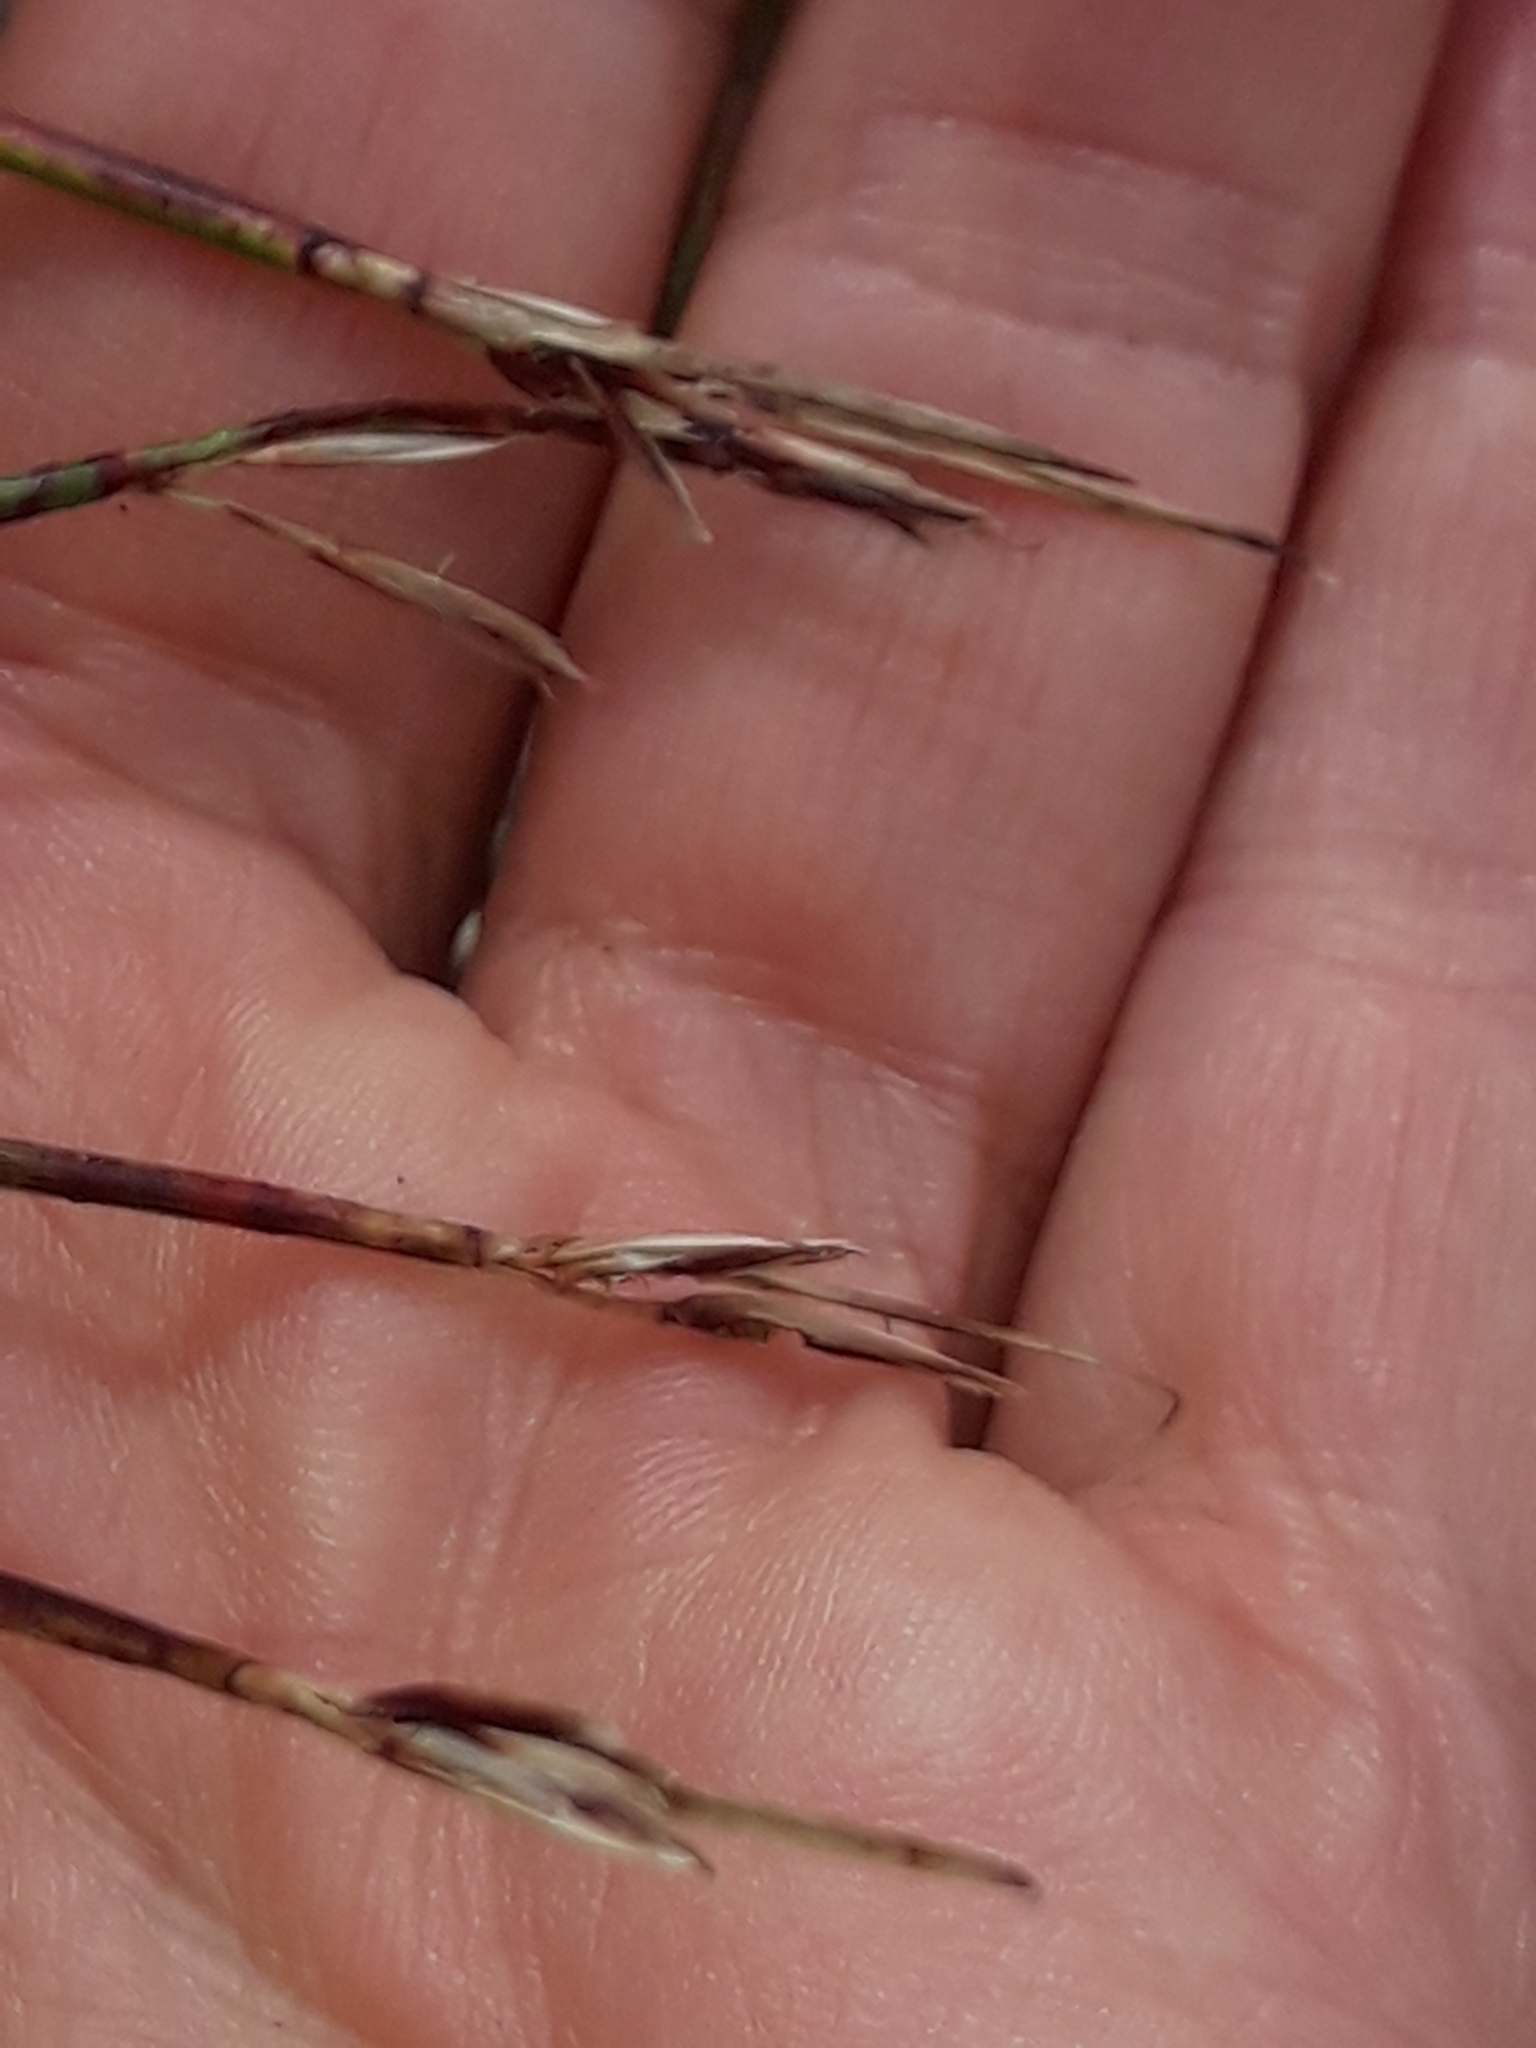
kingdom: Plantae
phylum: Tracheophyta
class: Liliopsida
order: Poales
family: Cyperaceae
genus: Schoenus
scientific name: Schoenus pauciflorus
